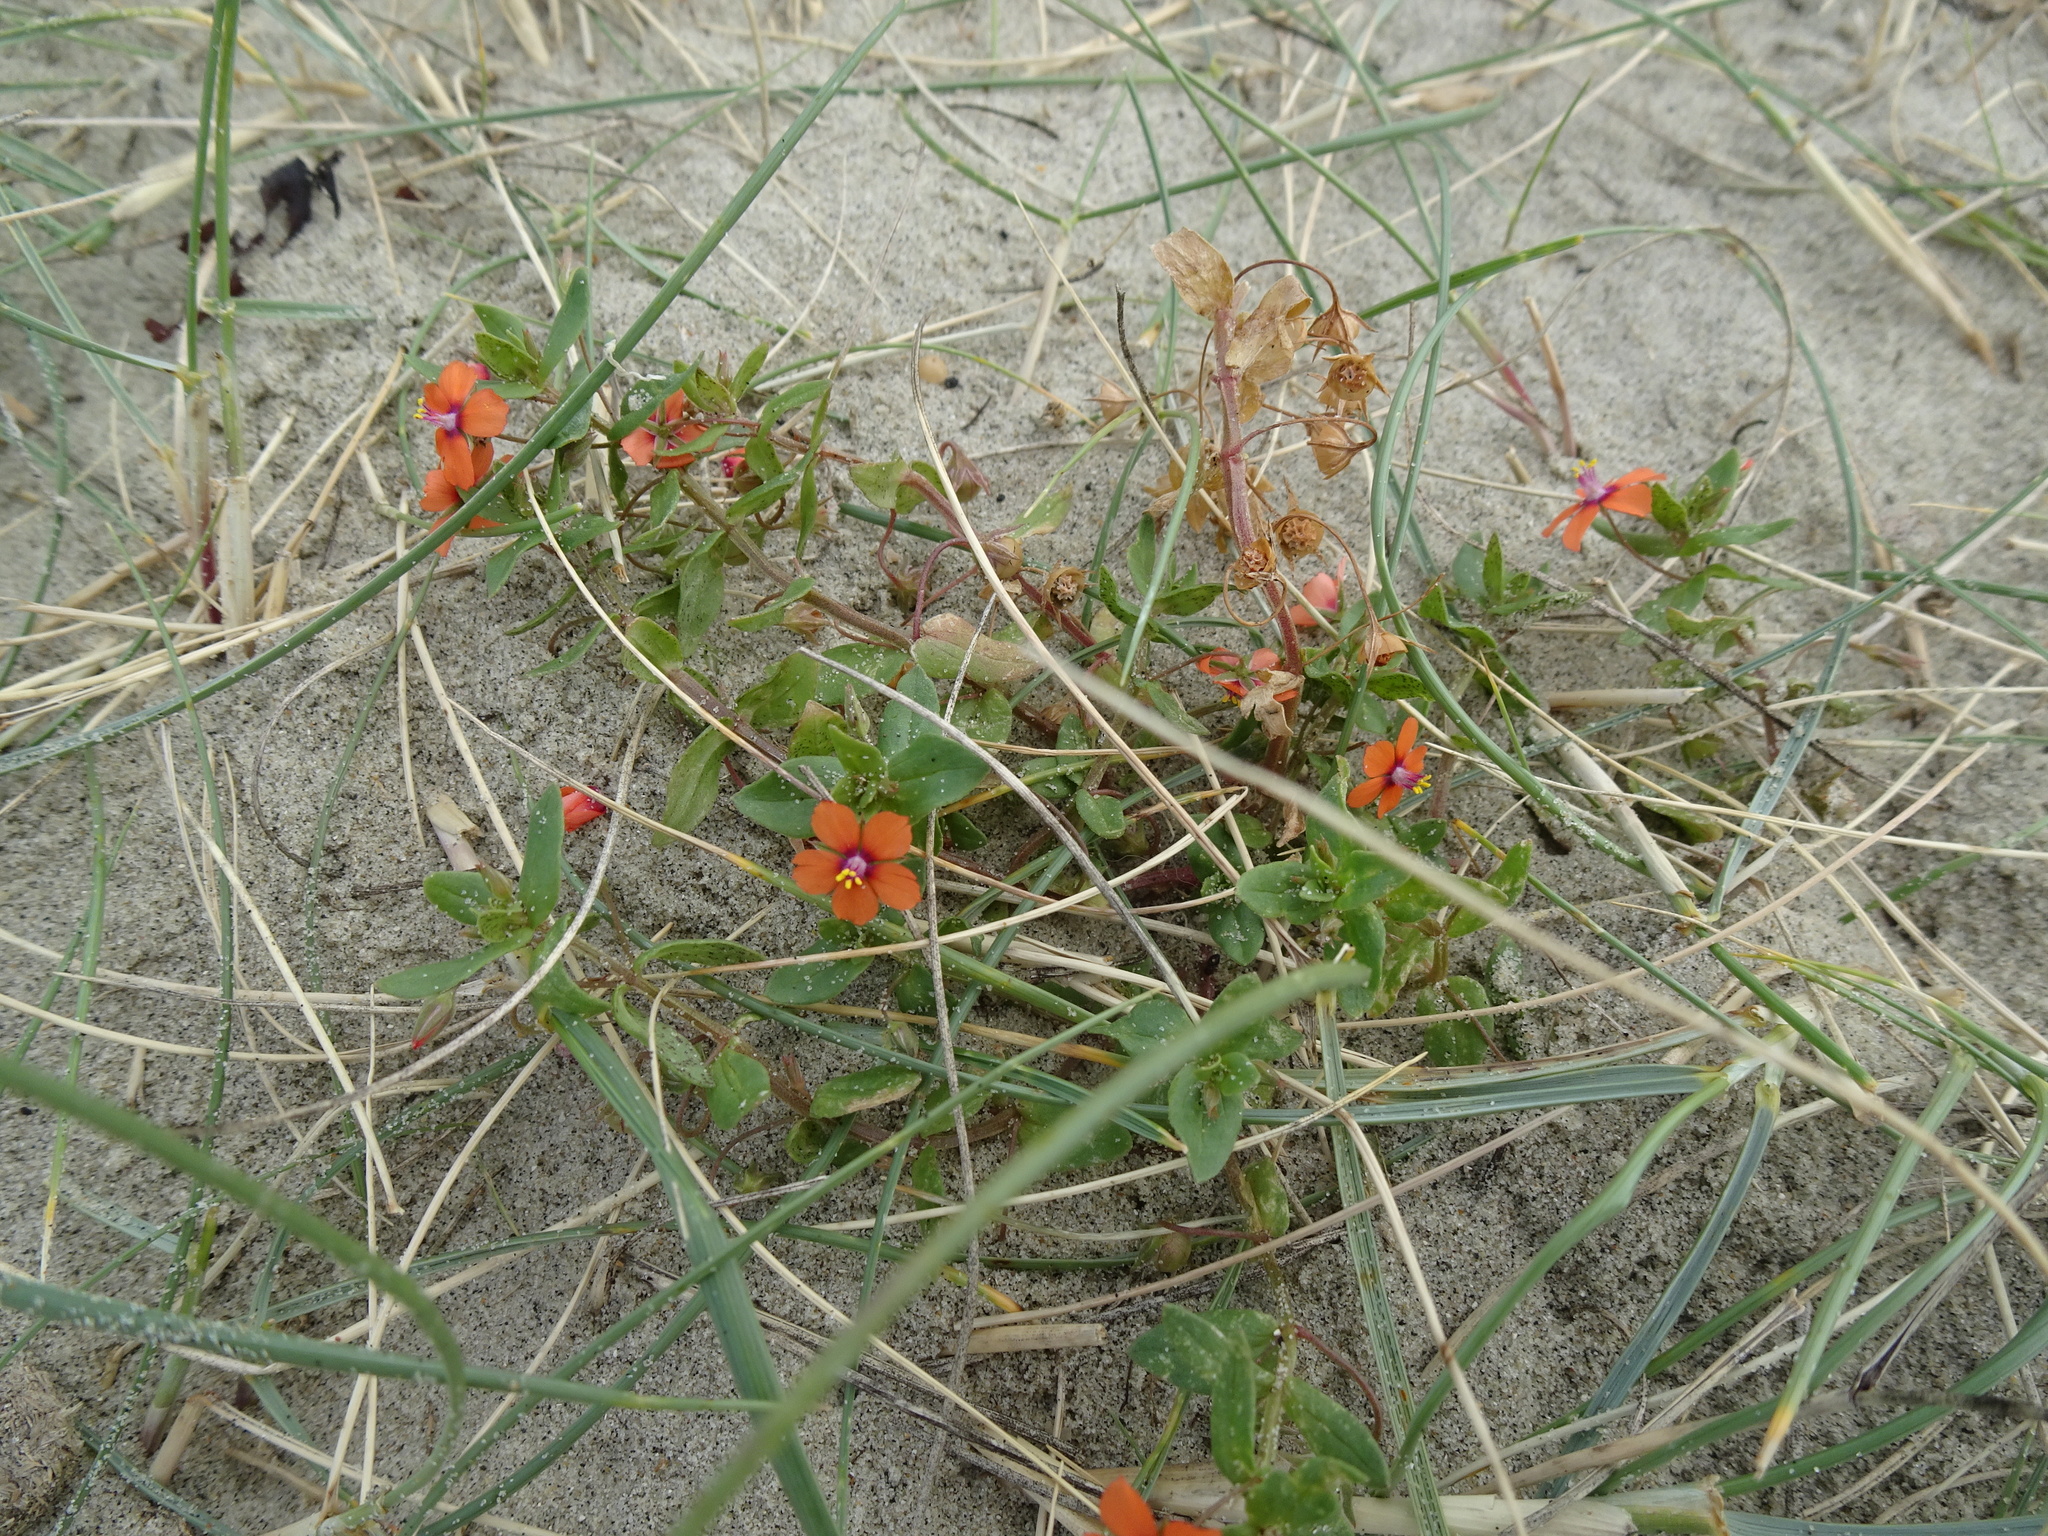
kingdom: Plantae
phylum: Tracheophyta
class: Magnoliopsida
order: Ericales
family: Primulaceae
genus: Lysimachia
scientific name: Lysimachia arvensis
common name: Scarlet pimpernel
